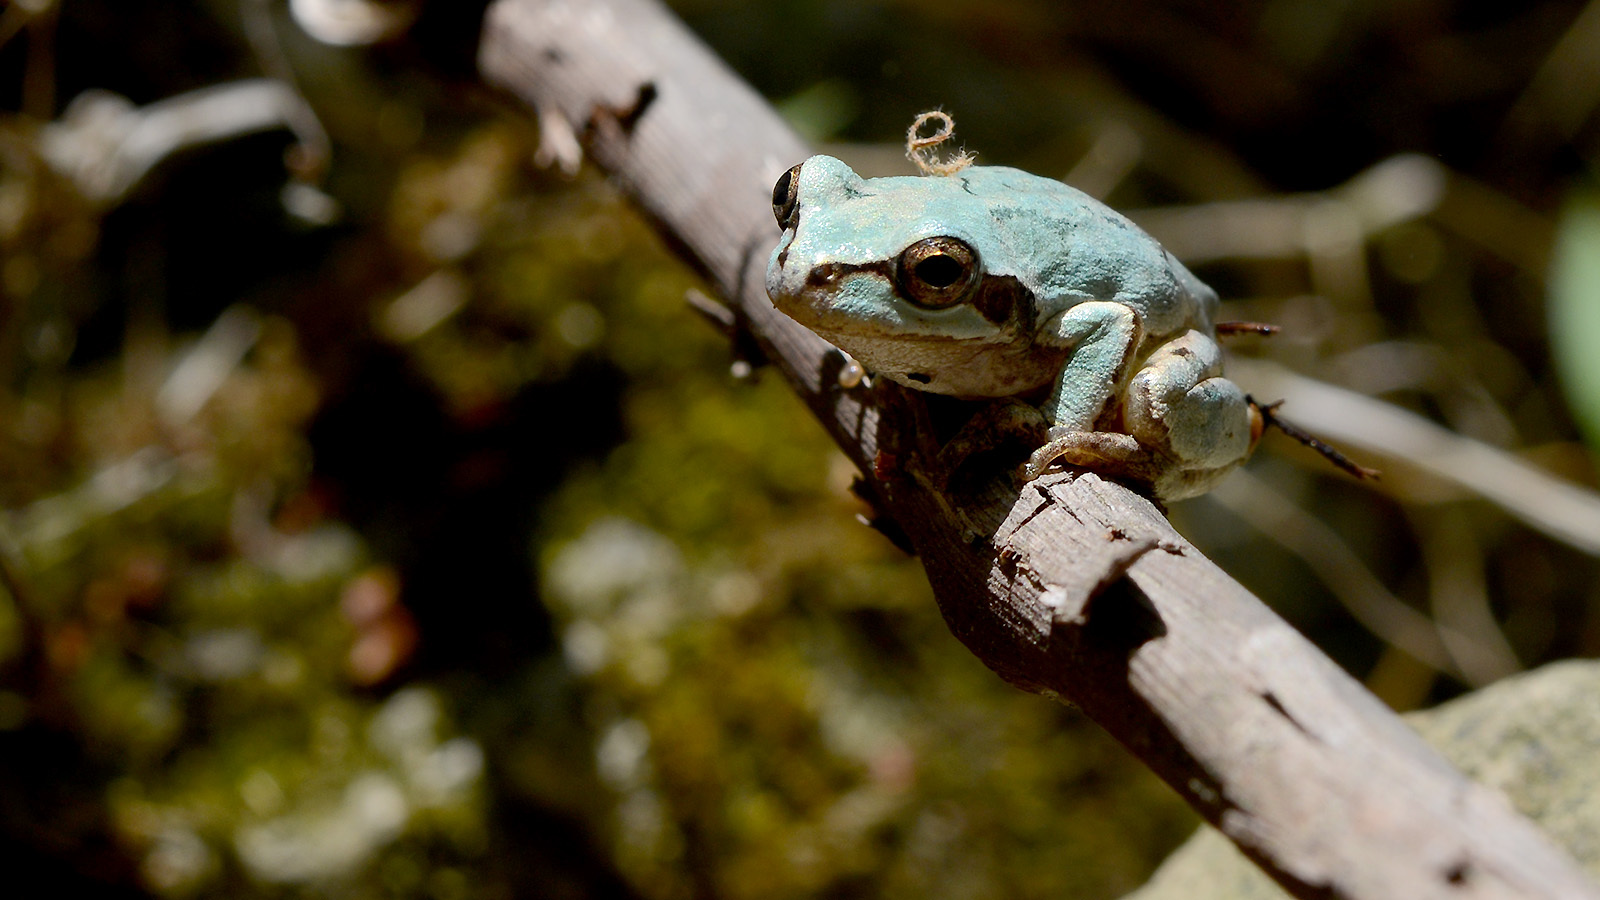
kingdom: Animalia
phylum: Chordata
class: Amphibia
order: Anura
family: Hylidae
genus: Dryophytes
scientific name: Dryophytes japonicus
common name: Japanese treefrog
